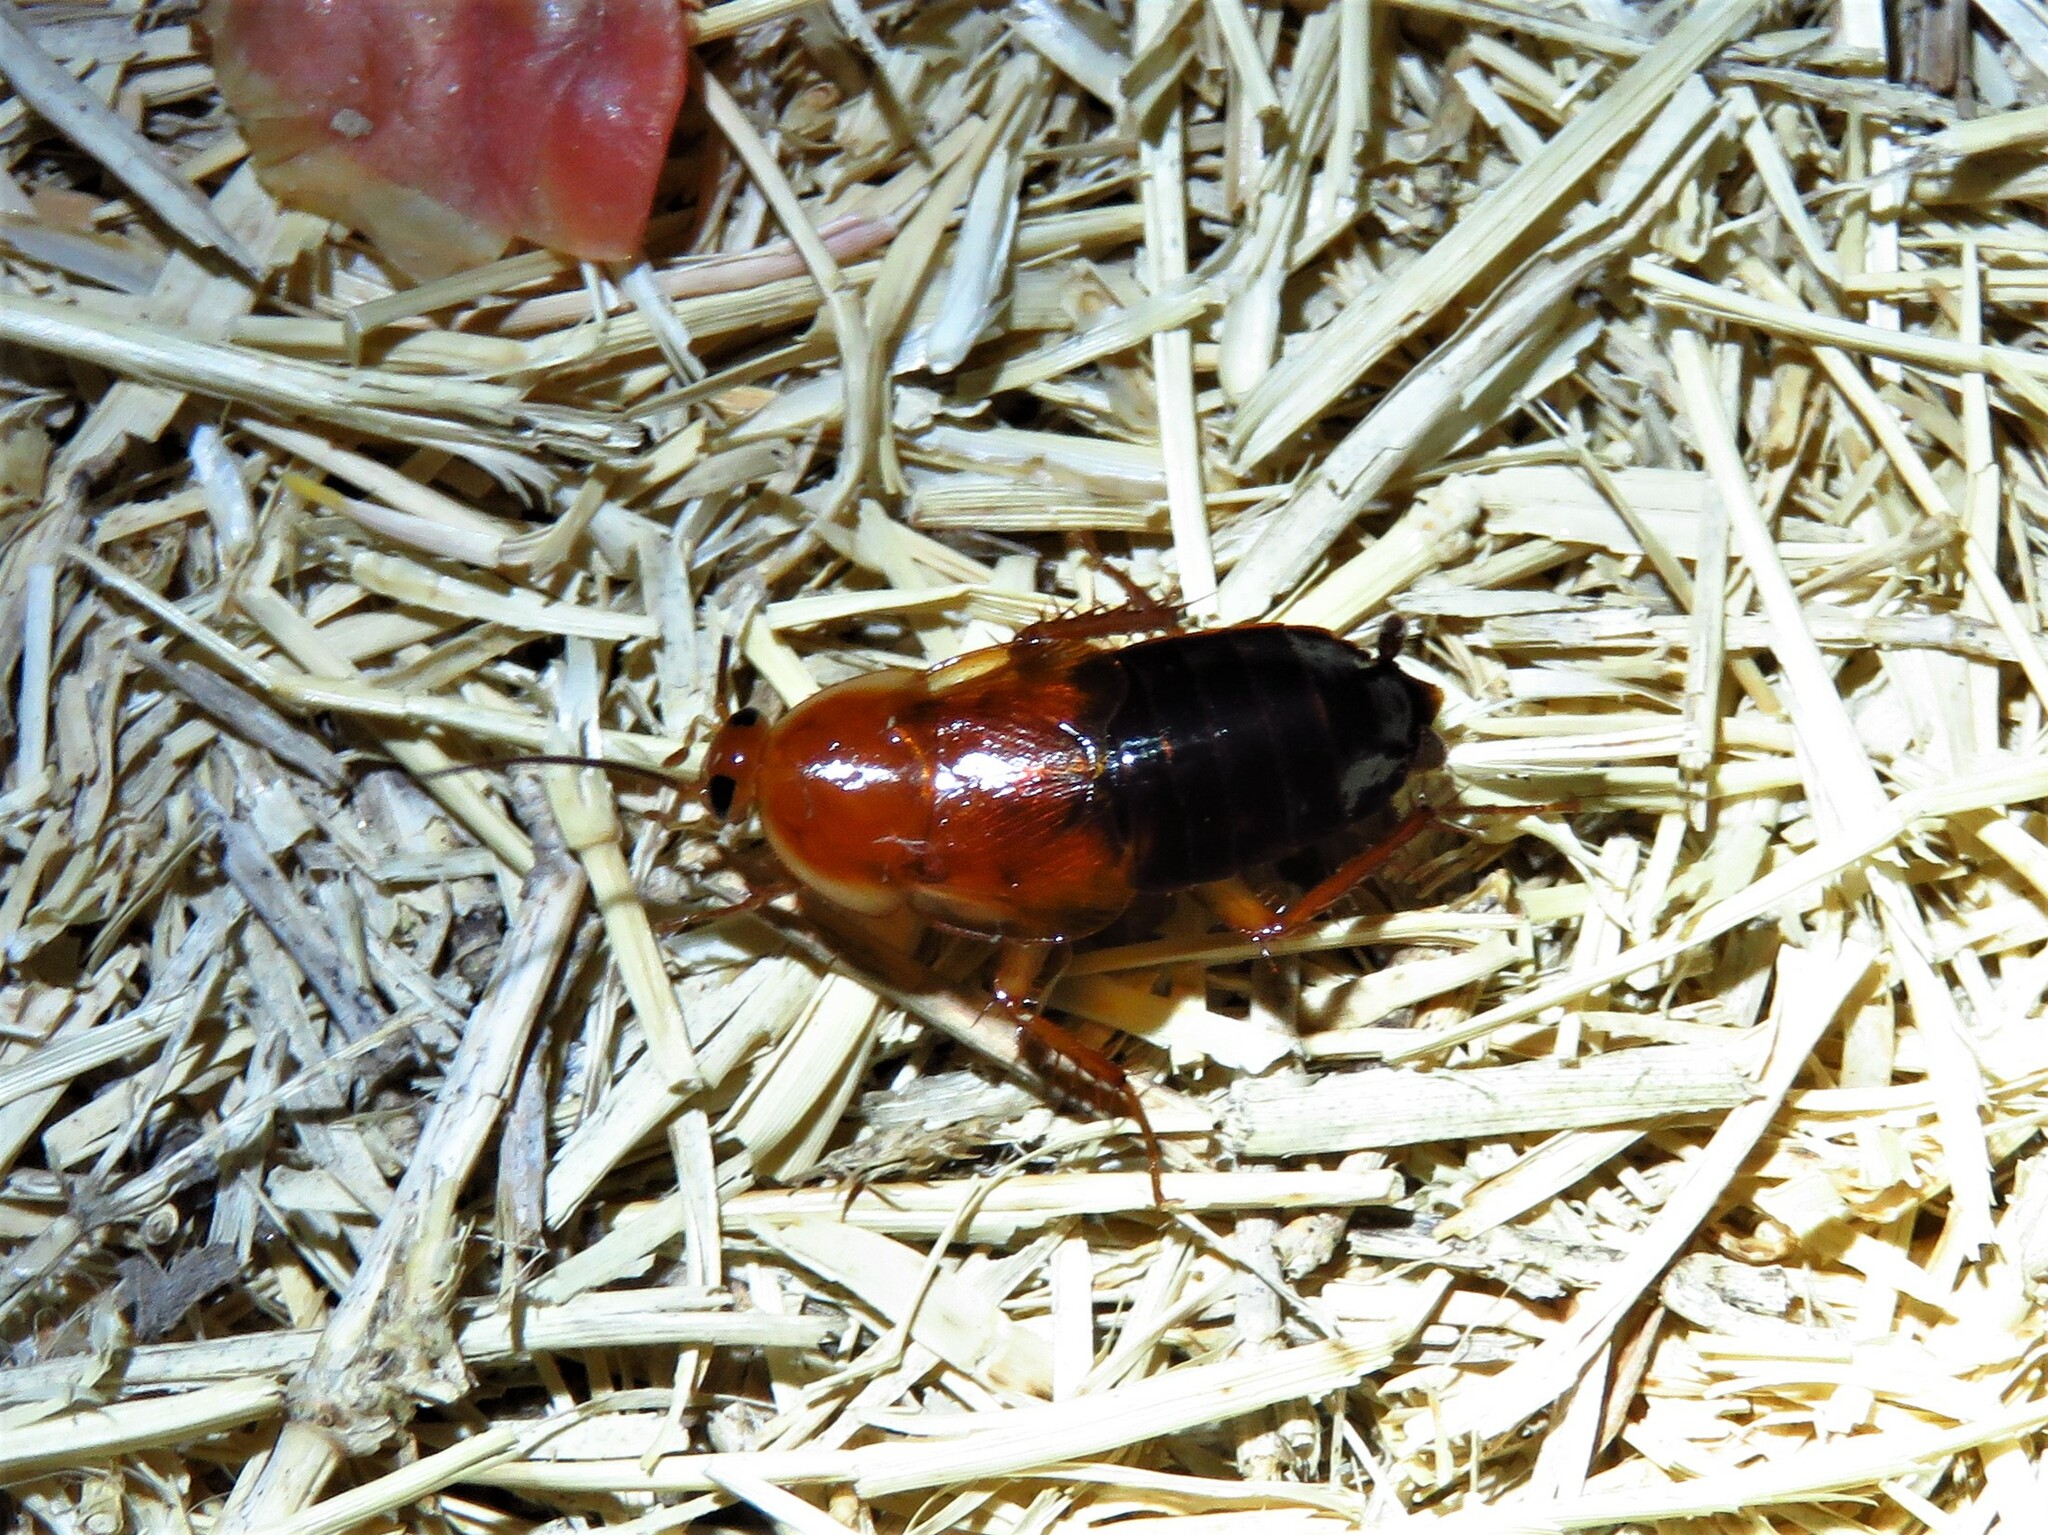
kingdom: Animalia
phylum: Arthropoda
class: Insecta
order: Blattodea
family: Ectobiidae
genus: Parcoblatta
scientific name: Parcoblatta fulvescens
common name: Fulvous wood cockroach
